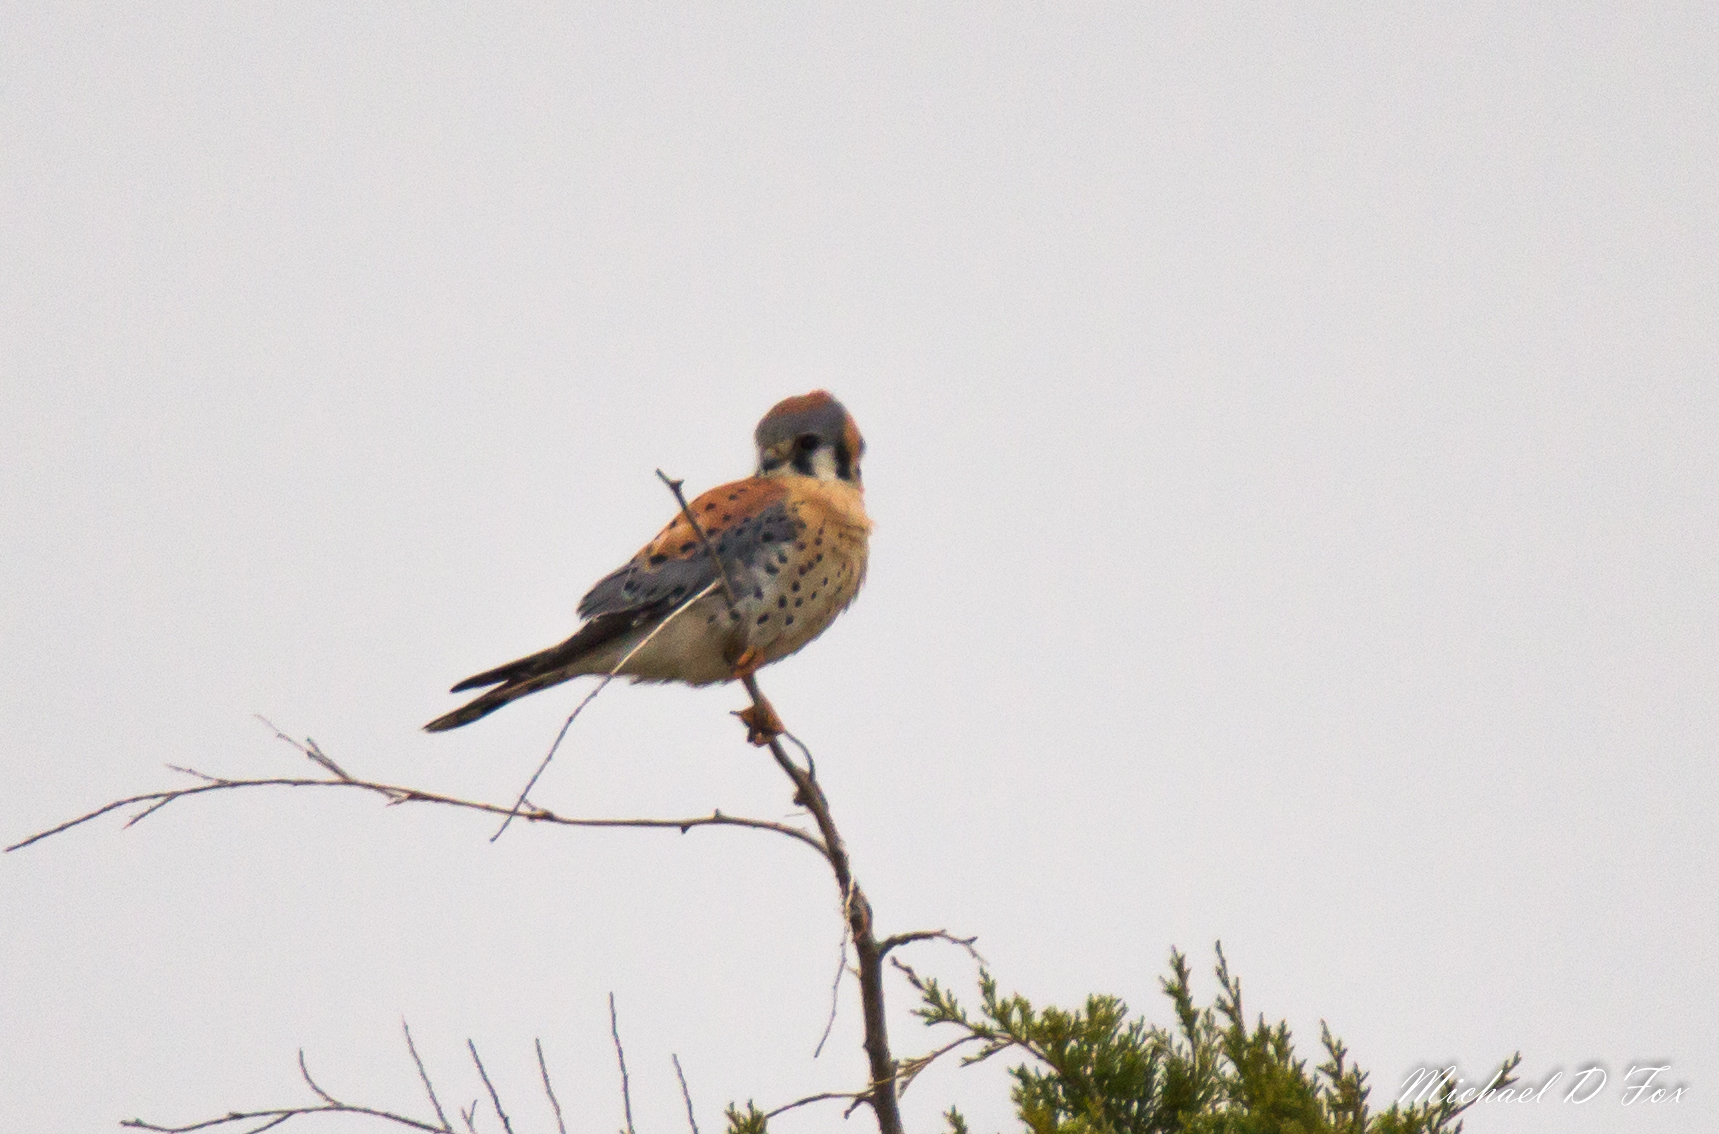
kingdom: Animalia
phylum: Chordata
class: Aves
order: Falconiformes
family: Falconidae
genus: Falco
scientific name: Falco sparverius
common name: American kestrel
